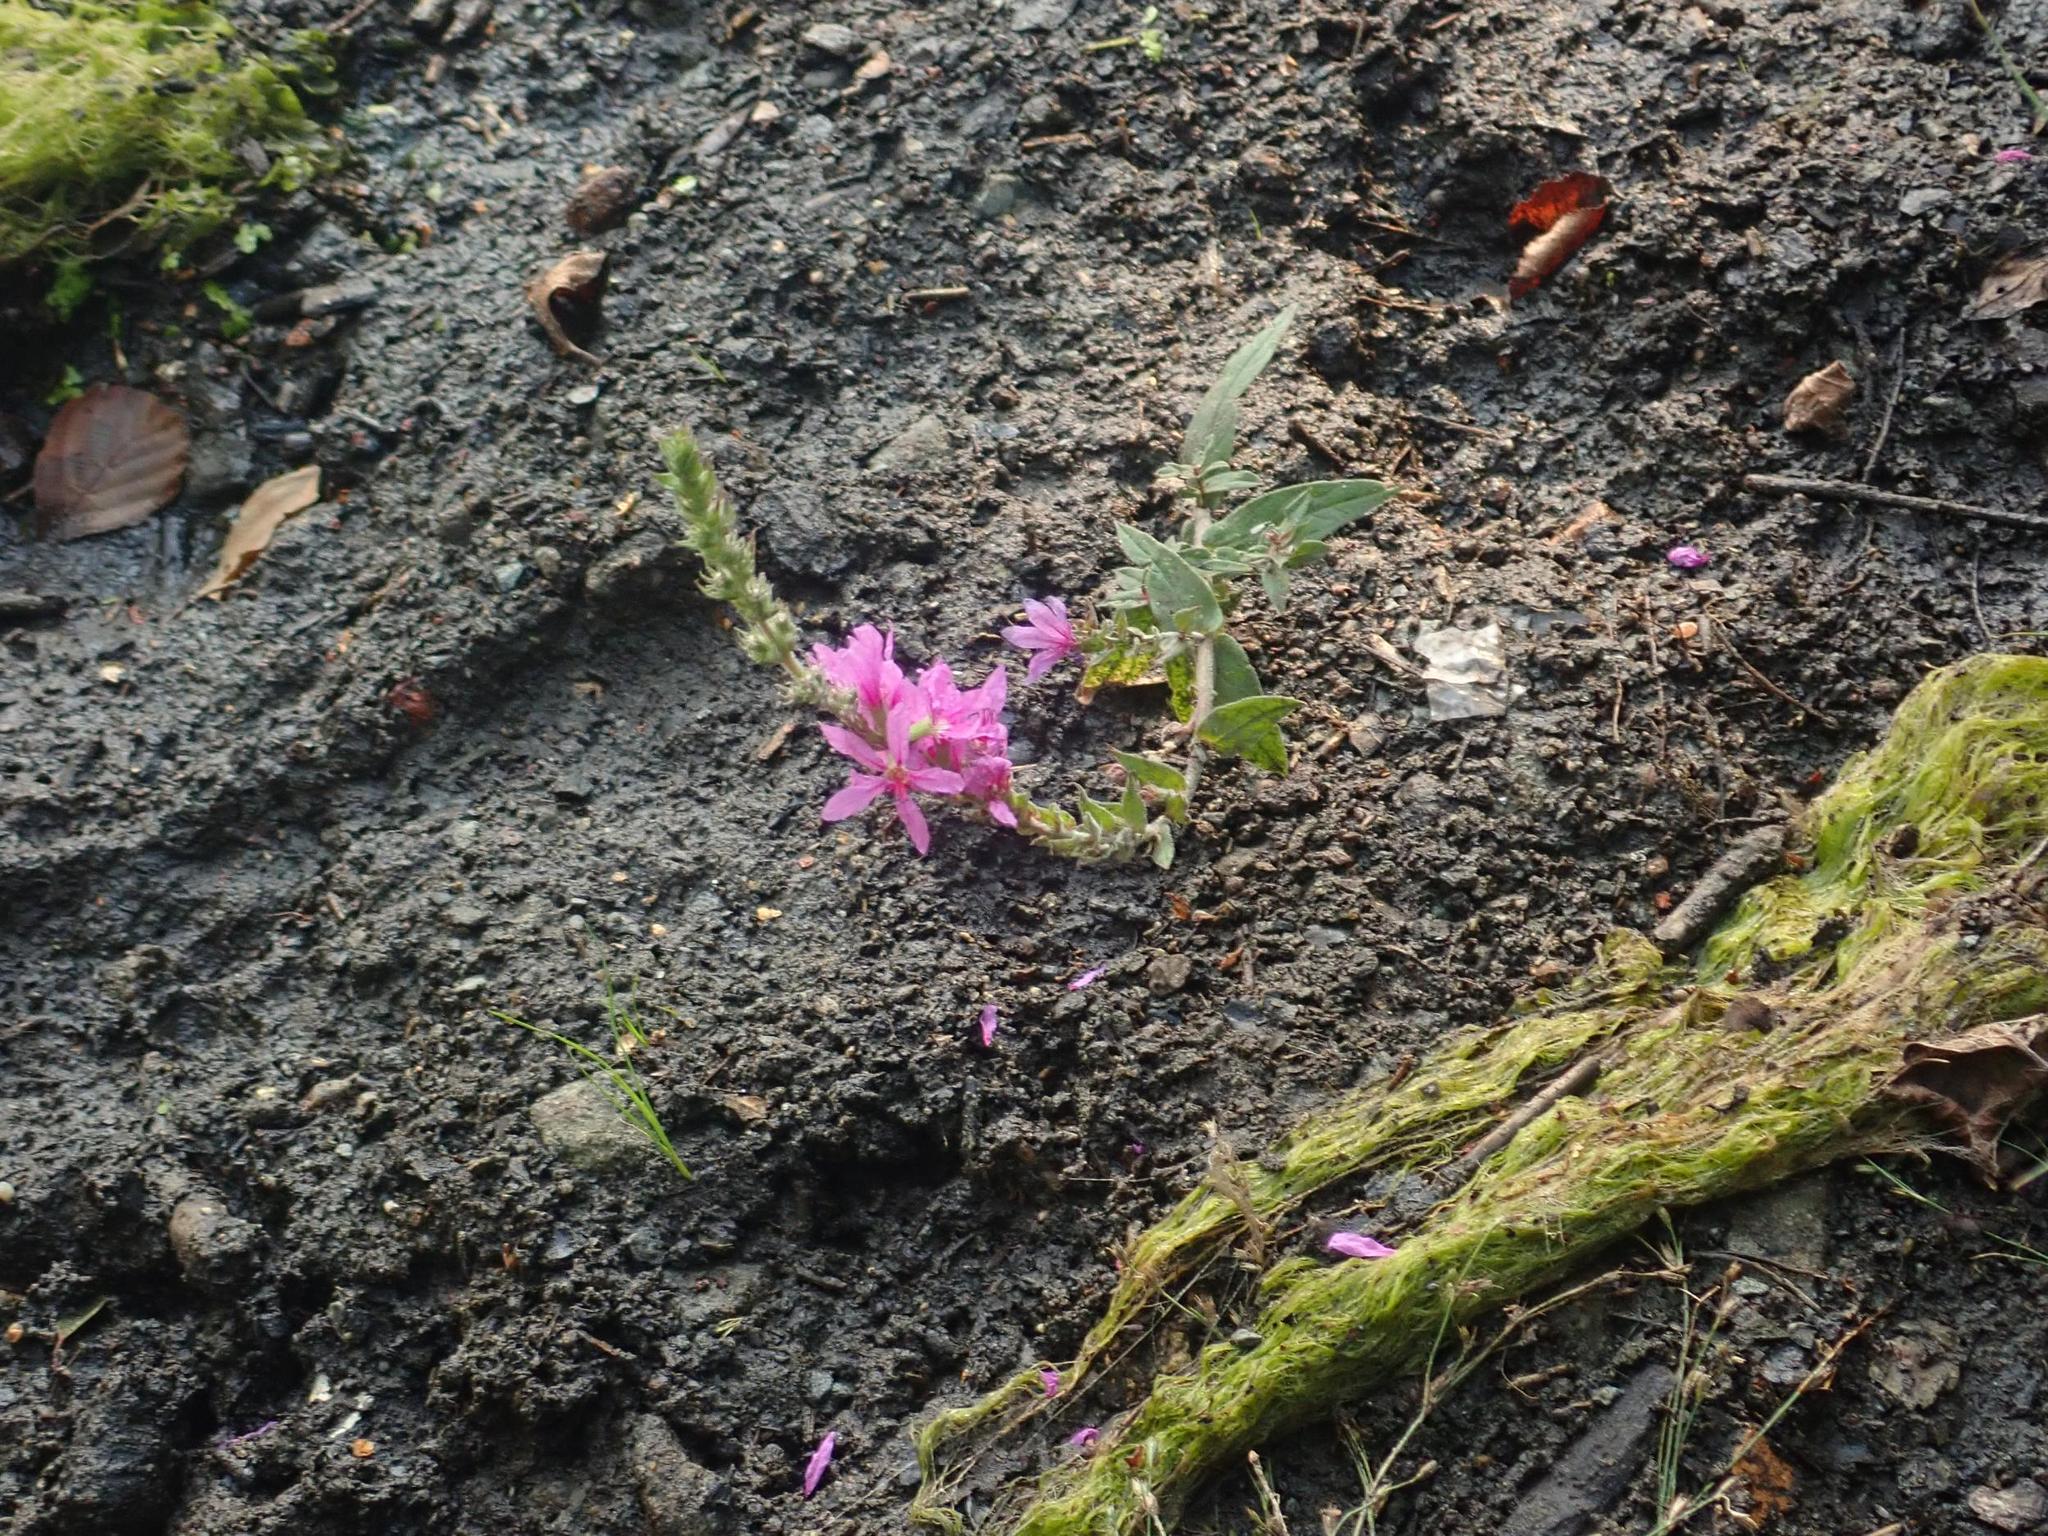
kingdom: Plantae
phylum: Tracheophyta
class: Magnoliopsida
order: Myrtales
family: Lythraceae
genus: Lythrum
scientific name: Lythrum salicaria
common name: Purple loosestrife
